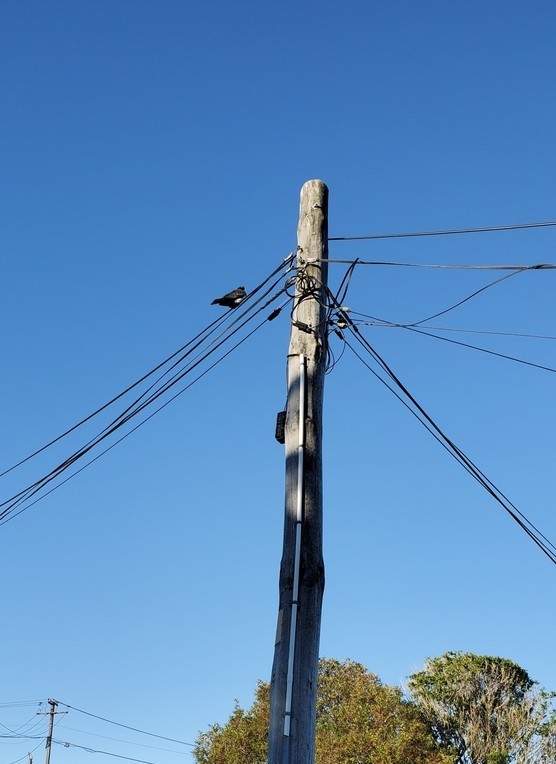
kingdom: Animalia
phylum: Chordata
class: Aves
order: Columbiformes
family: Columbidae
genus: Hemiphaga
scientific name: Hemiphaga novaeseelandiae
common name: New zealand pigeon
